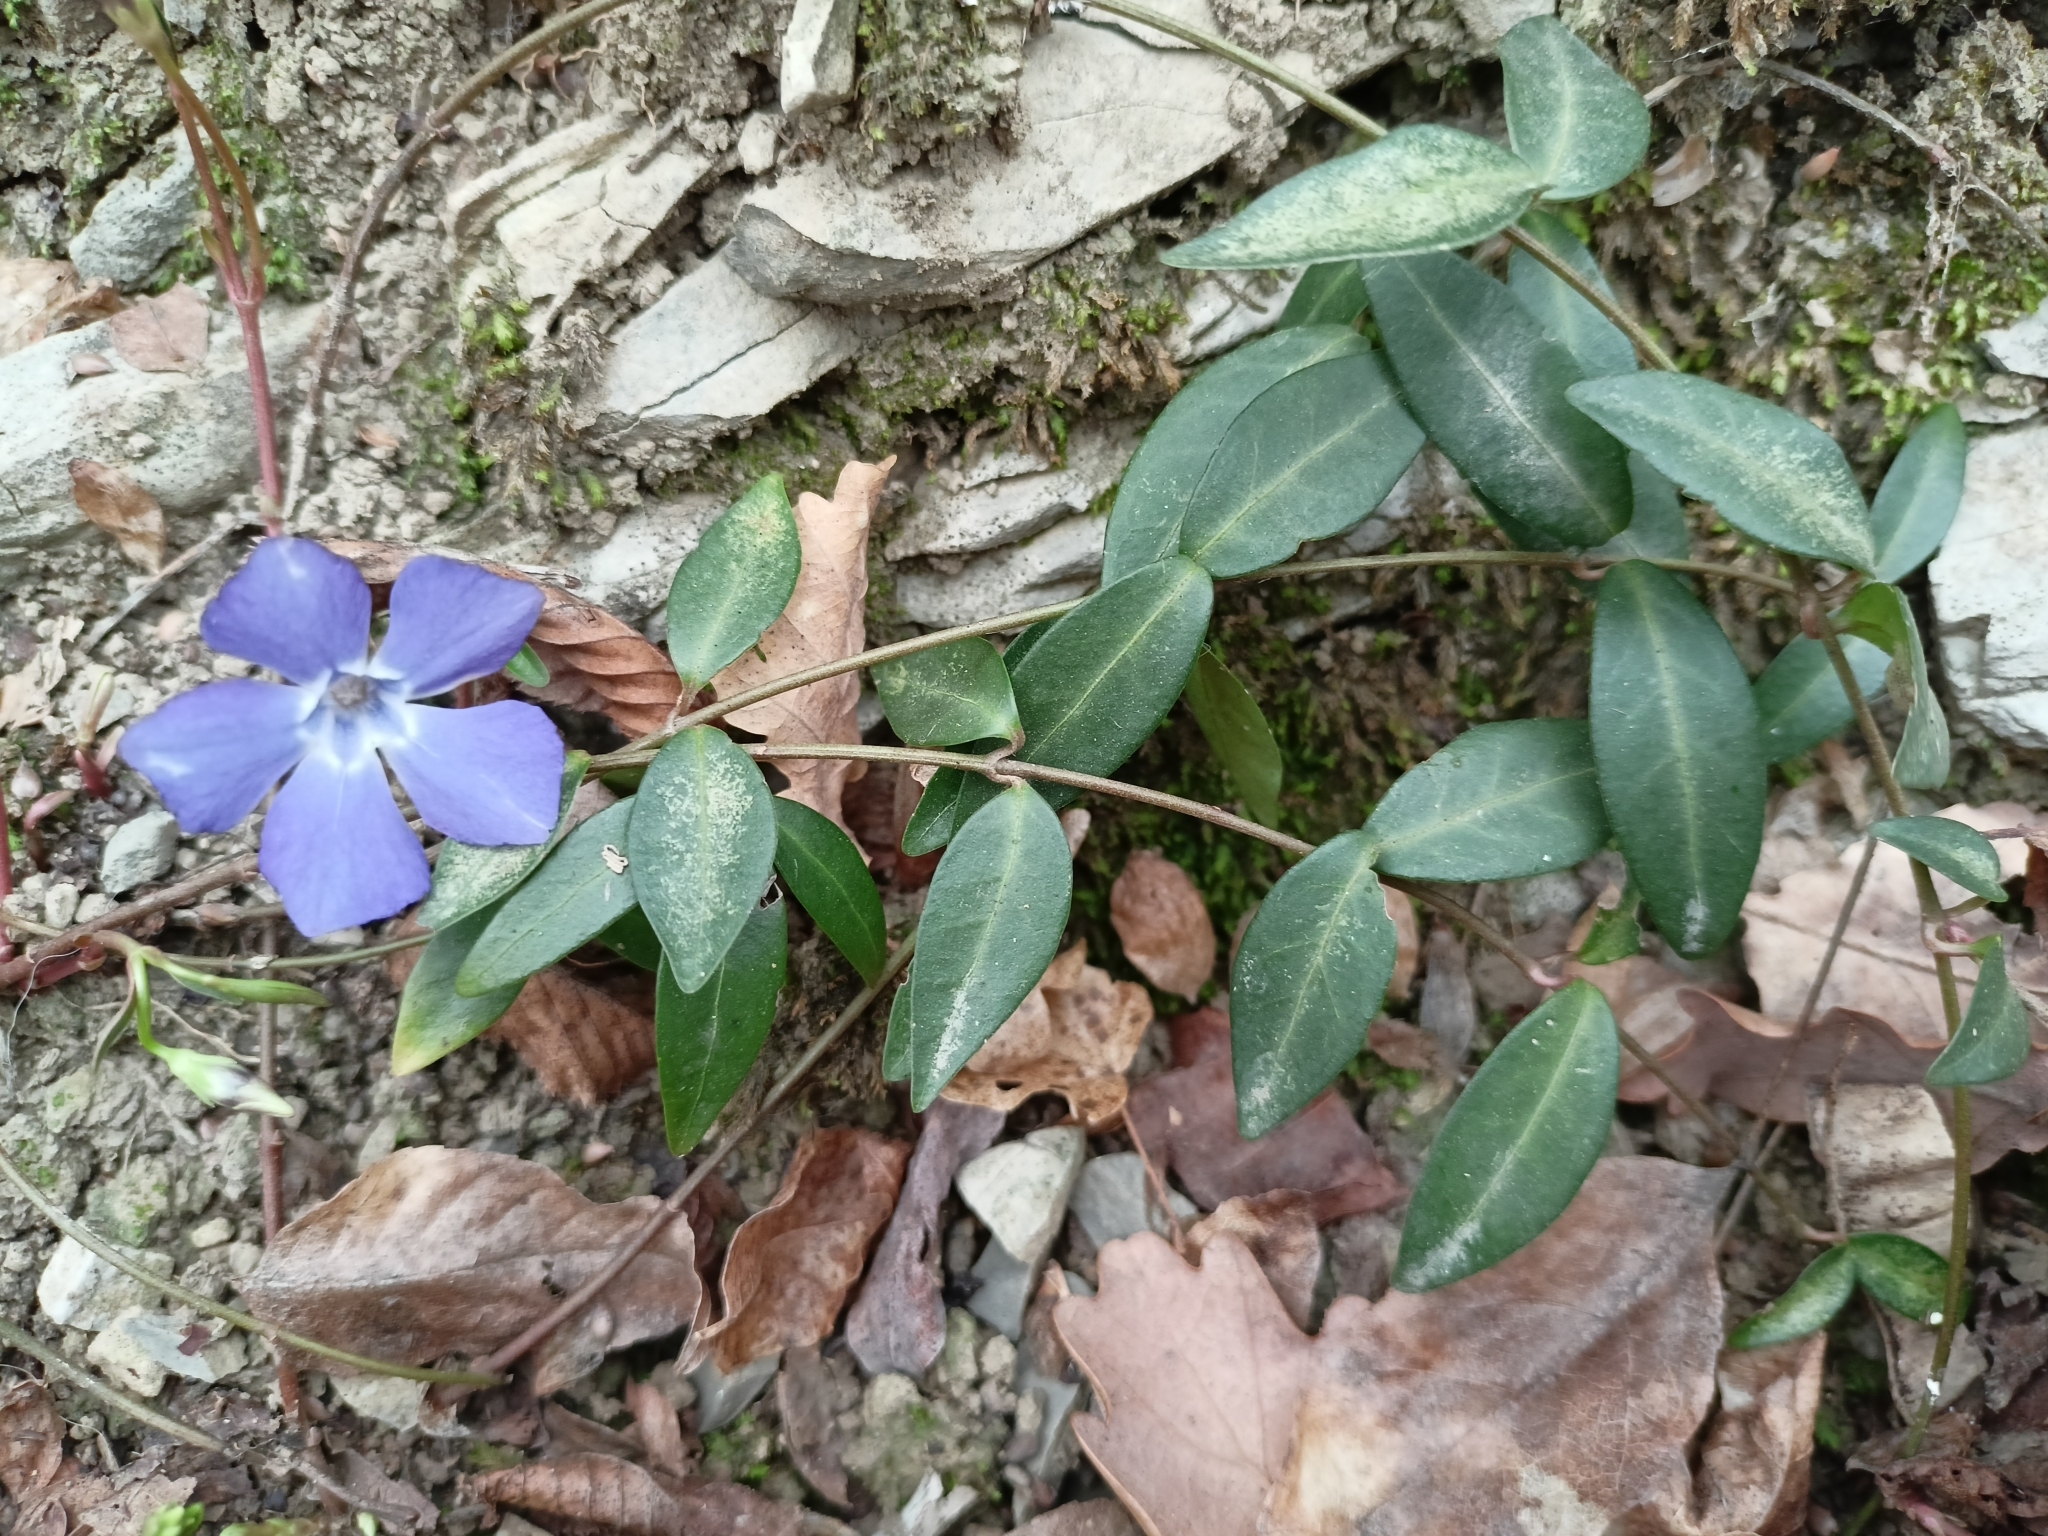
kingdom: Plantae
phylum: Tracheophyta
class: Magnoliopsida
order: Gentianales
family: Apocynaceae
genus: Vinca
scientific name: Vinca minor
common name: Lesser periwinkle
